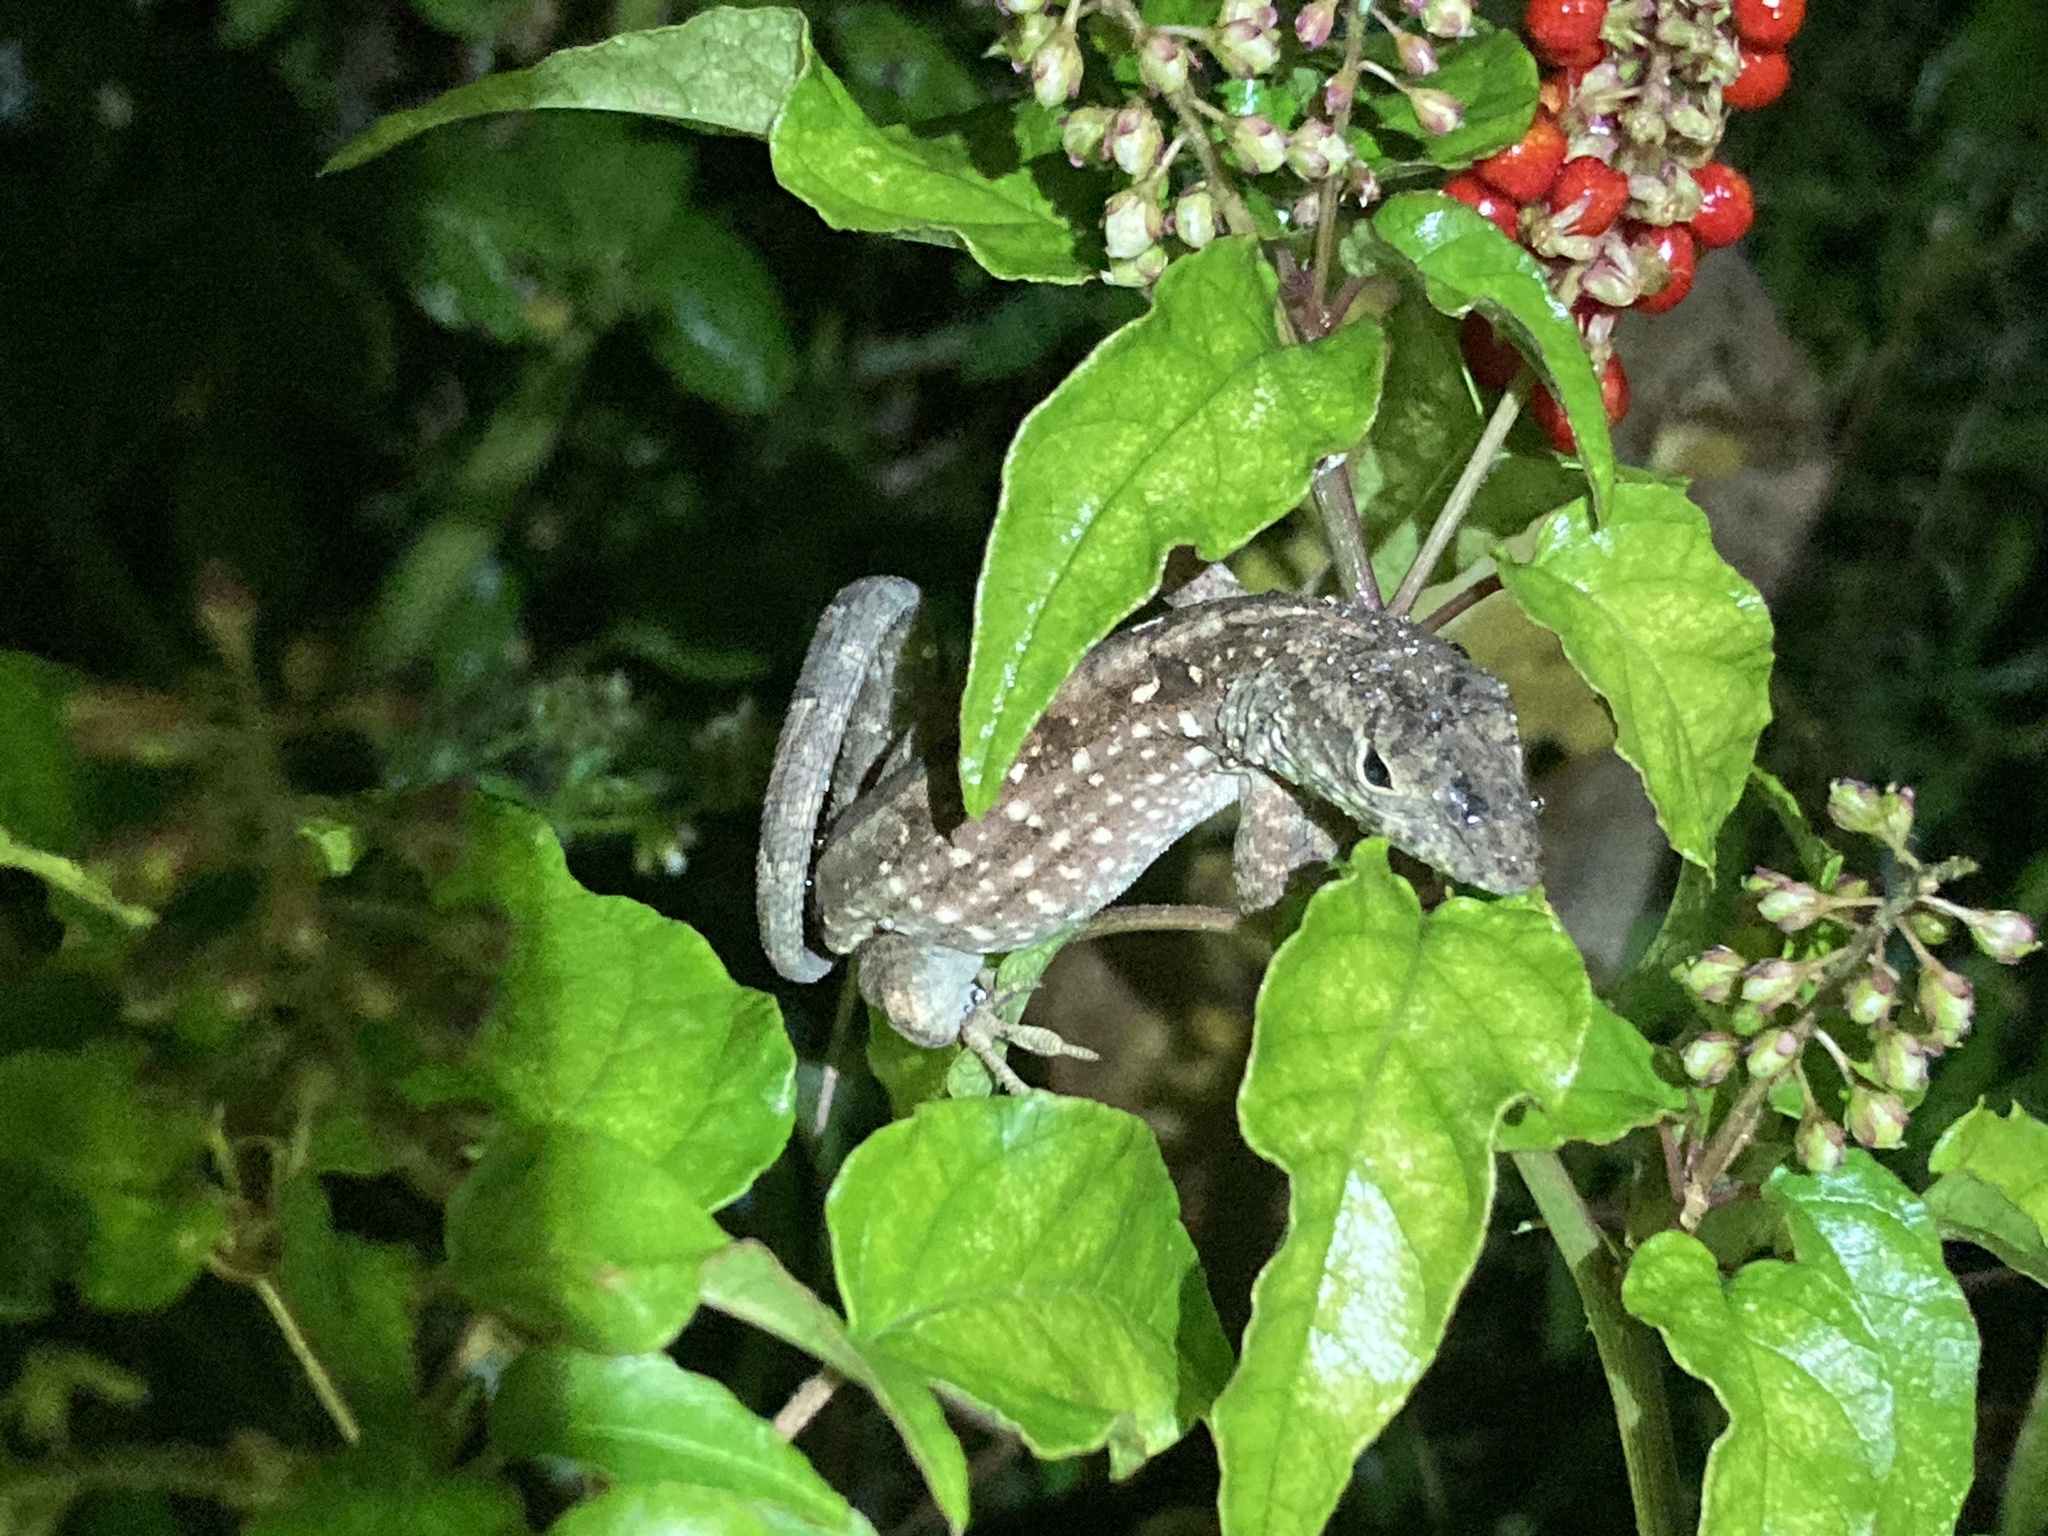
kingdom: Animalia
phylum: Chordata
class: Squamata
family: Dactyloidae
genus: Anolis
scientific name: Anolis sagrei
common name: Brown anole
